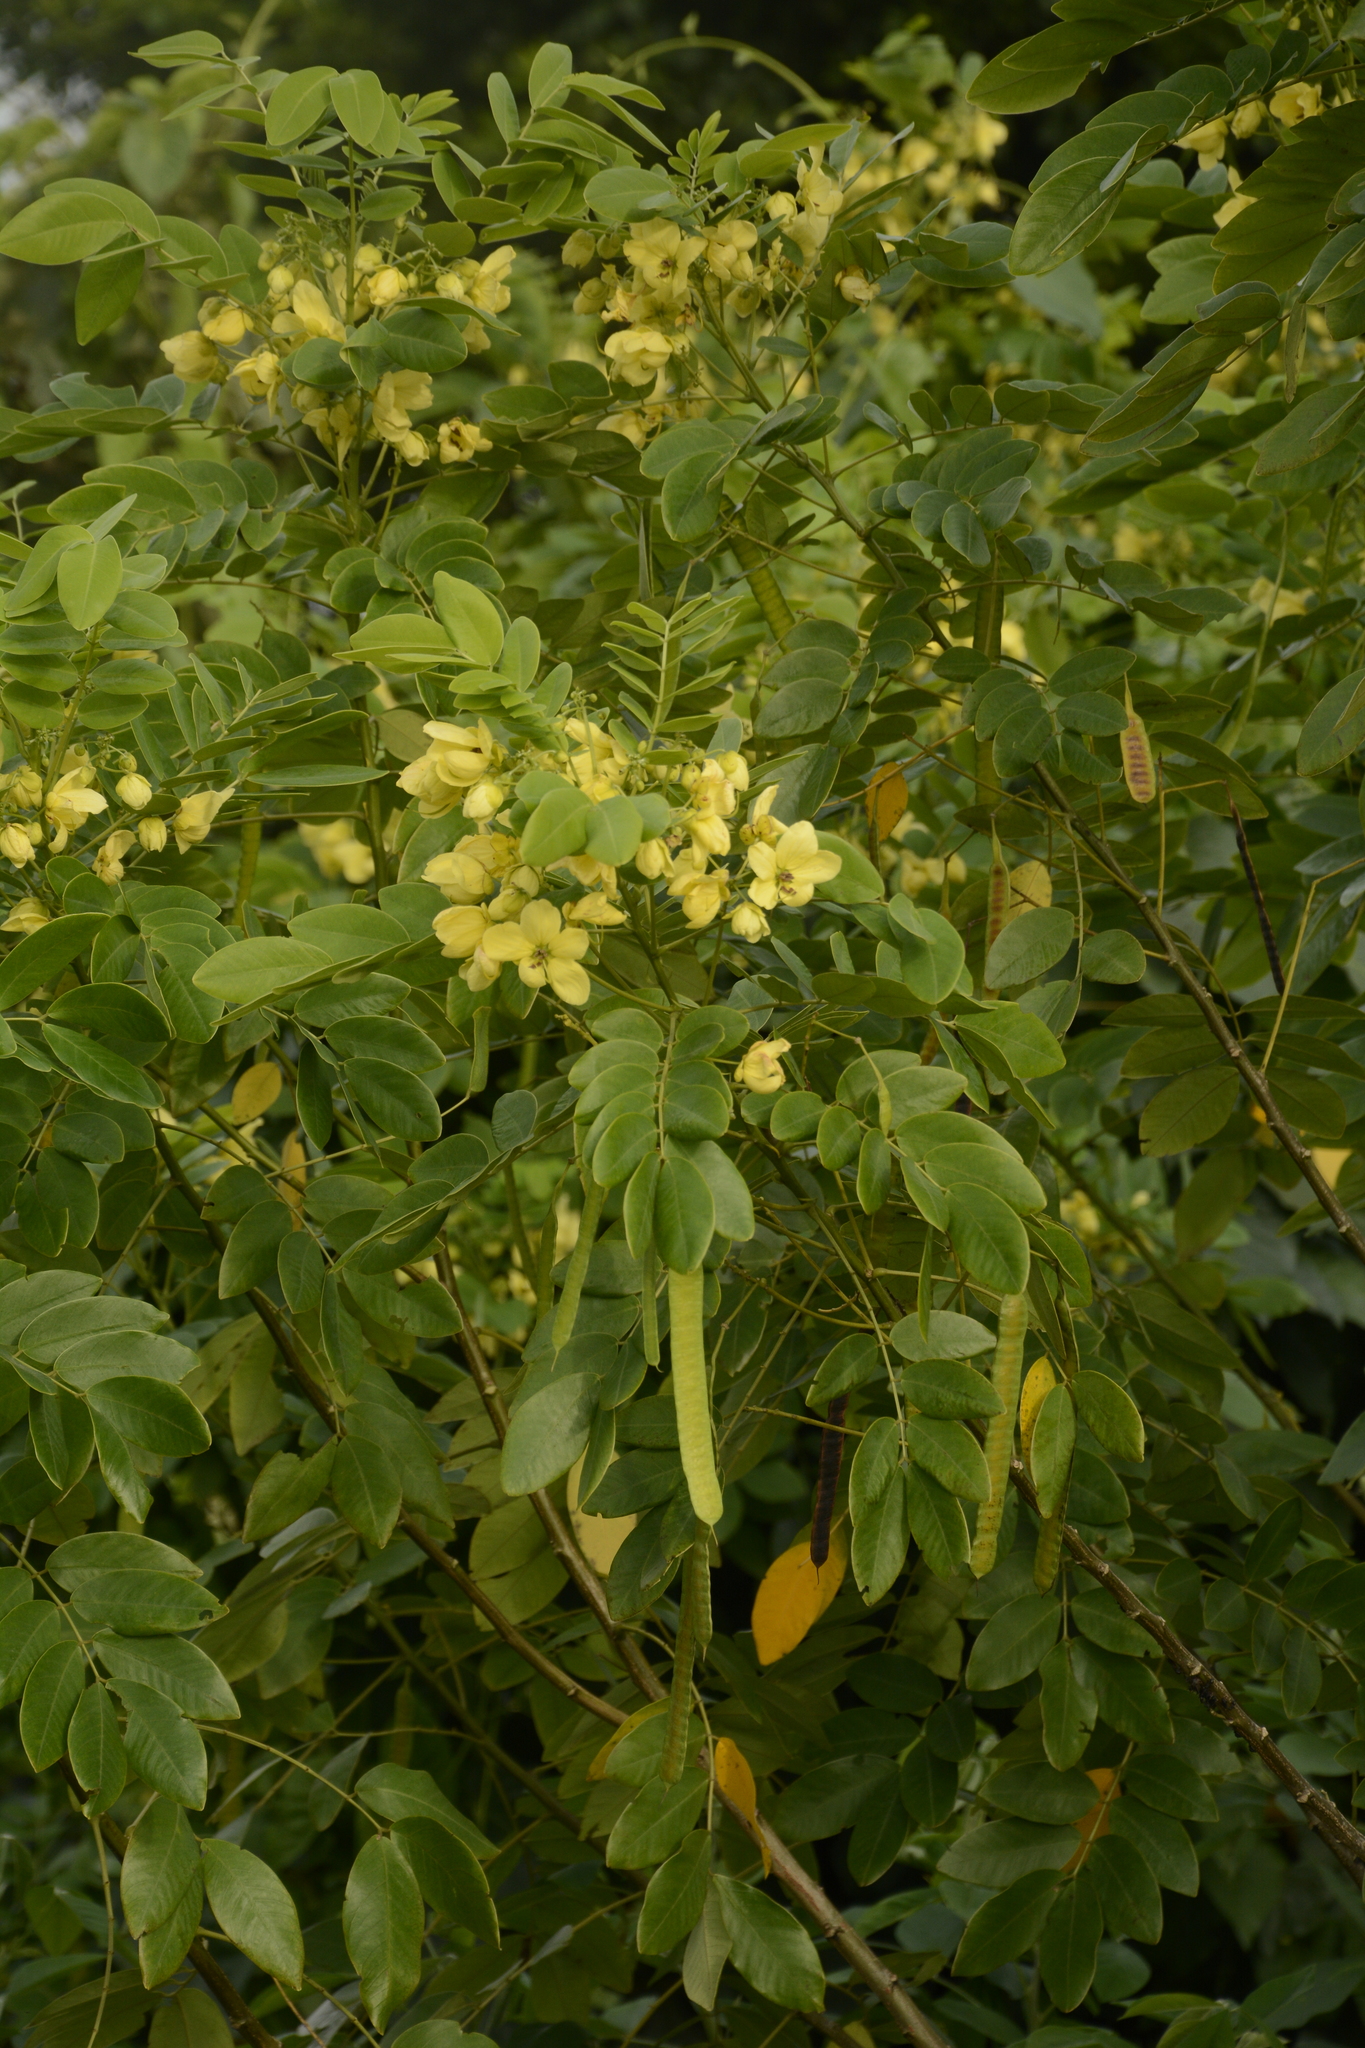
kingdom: Plantae
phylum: Tracheophyta
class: Magnoliopsida
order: Fabales
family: Fabaceae
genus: Senna
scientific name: Senna sulfurea
